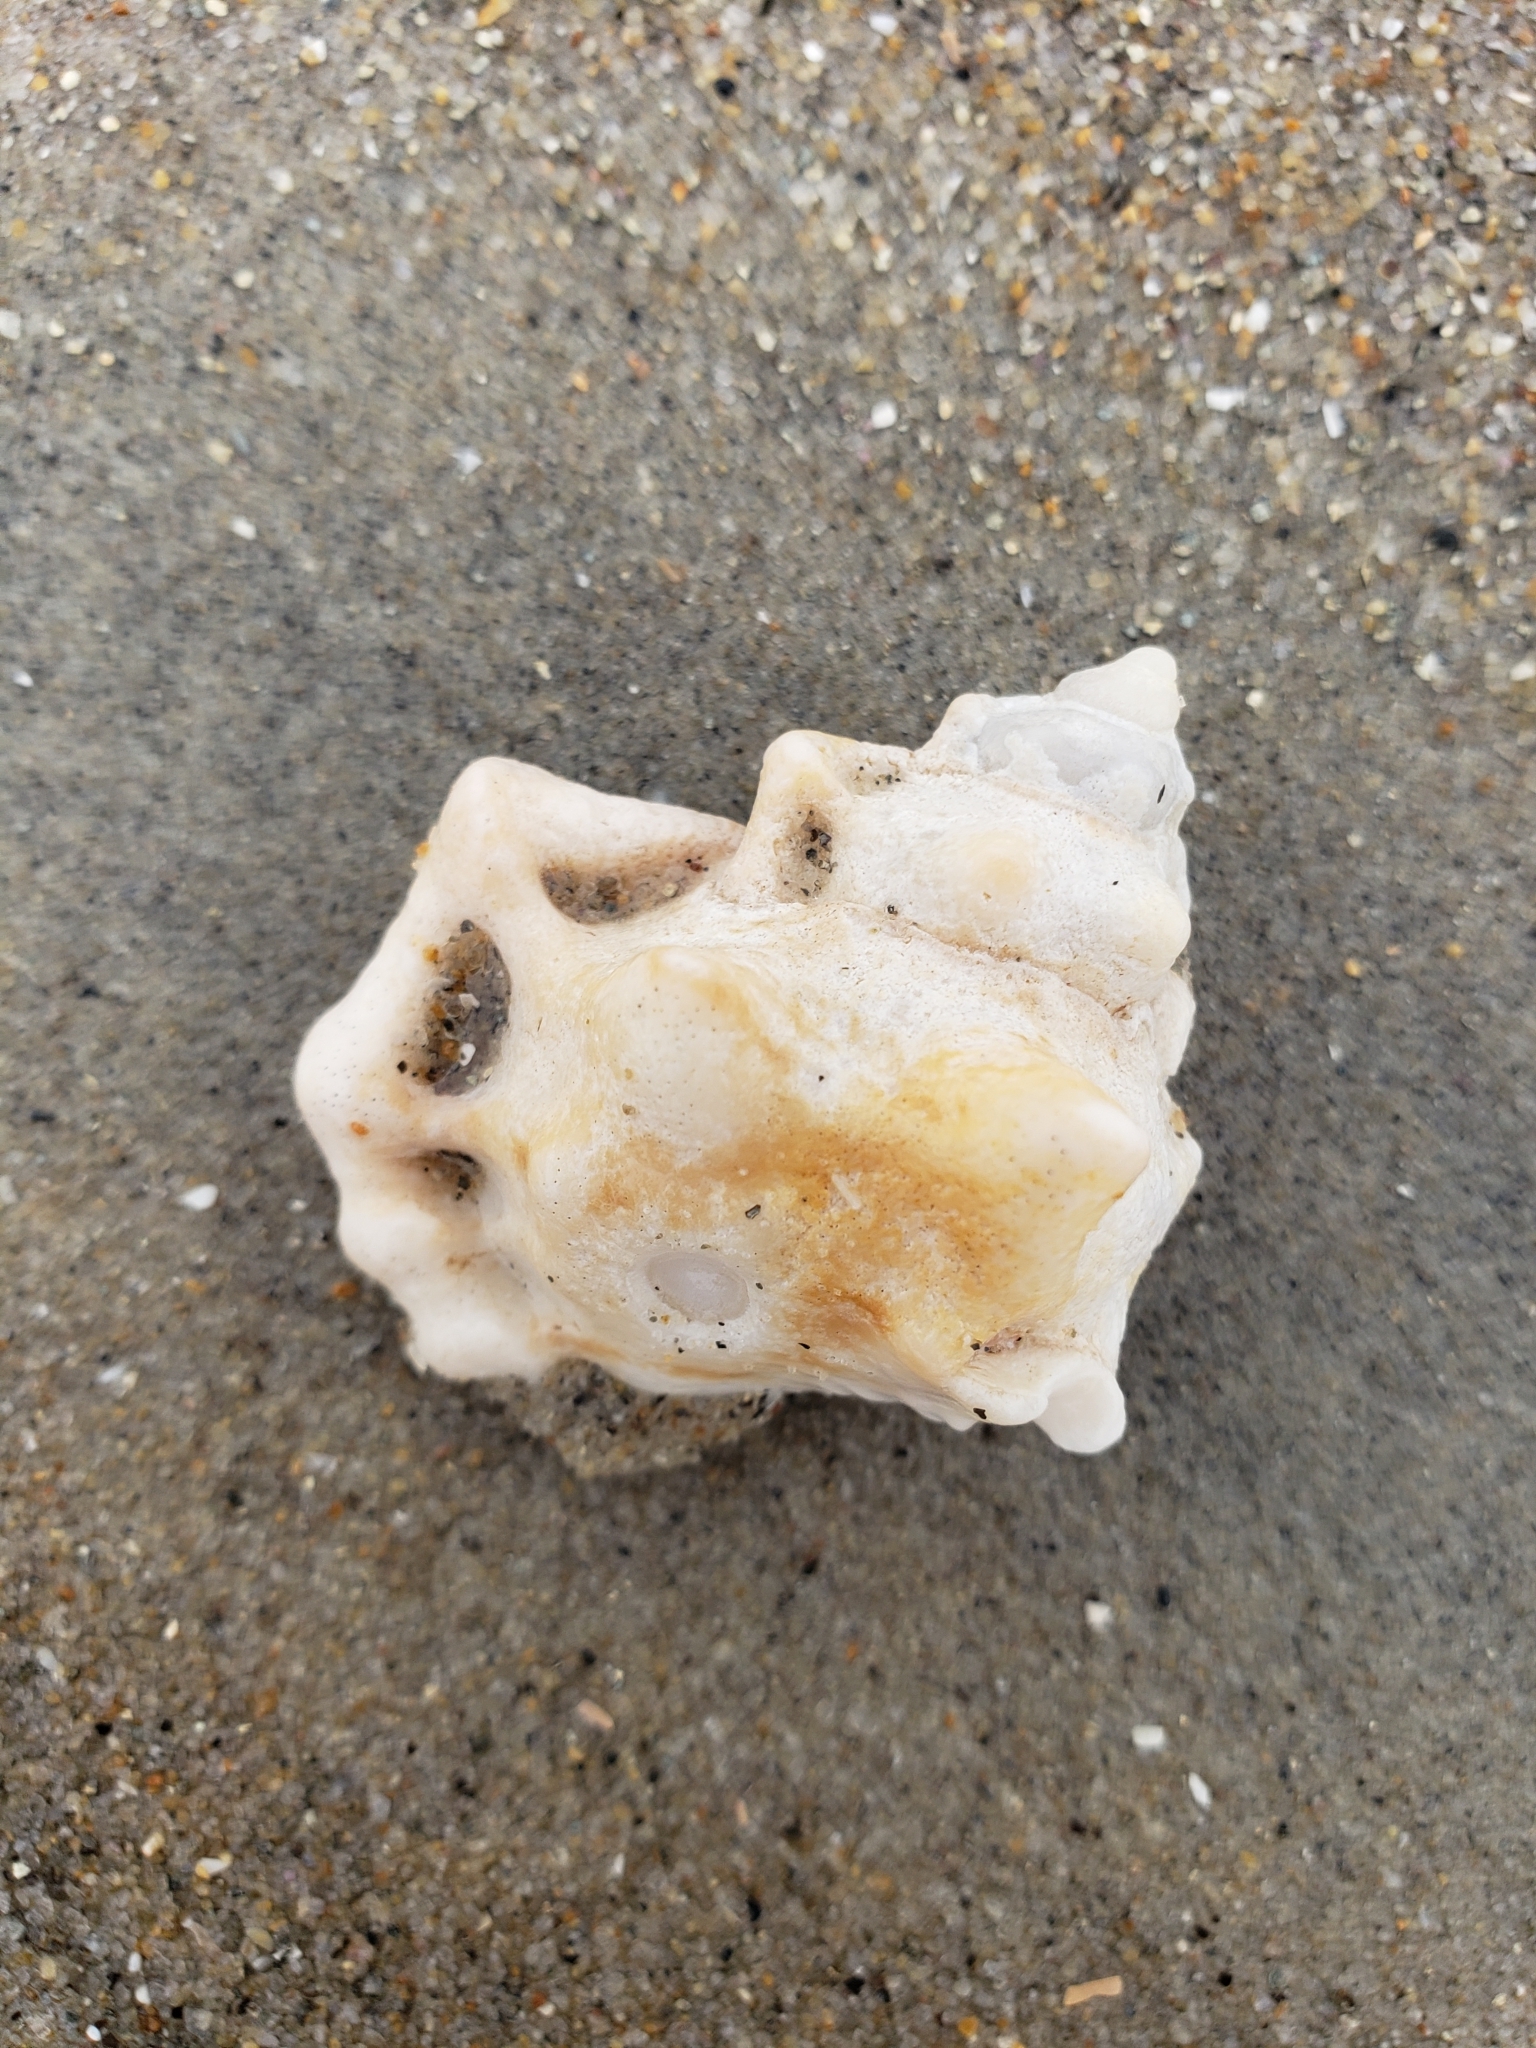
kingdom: Animalia
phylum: Mollusca
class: Gastropoda
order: Littorinimorpha
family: Bursidae
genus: Crossata
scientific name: Crossata californica
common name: California frogsnail
